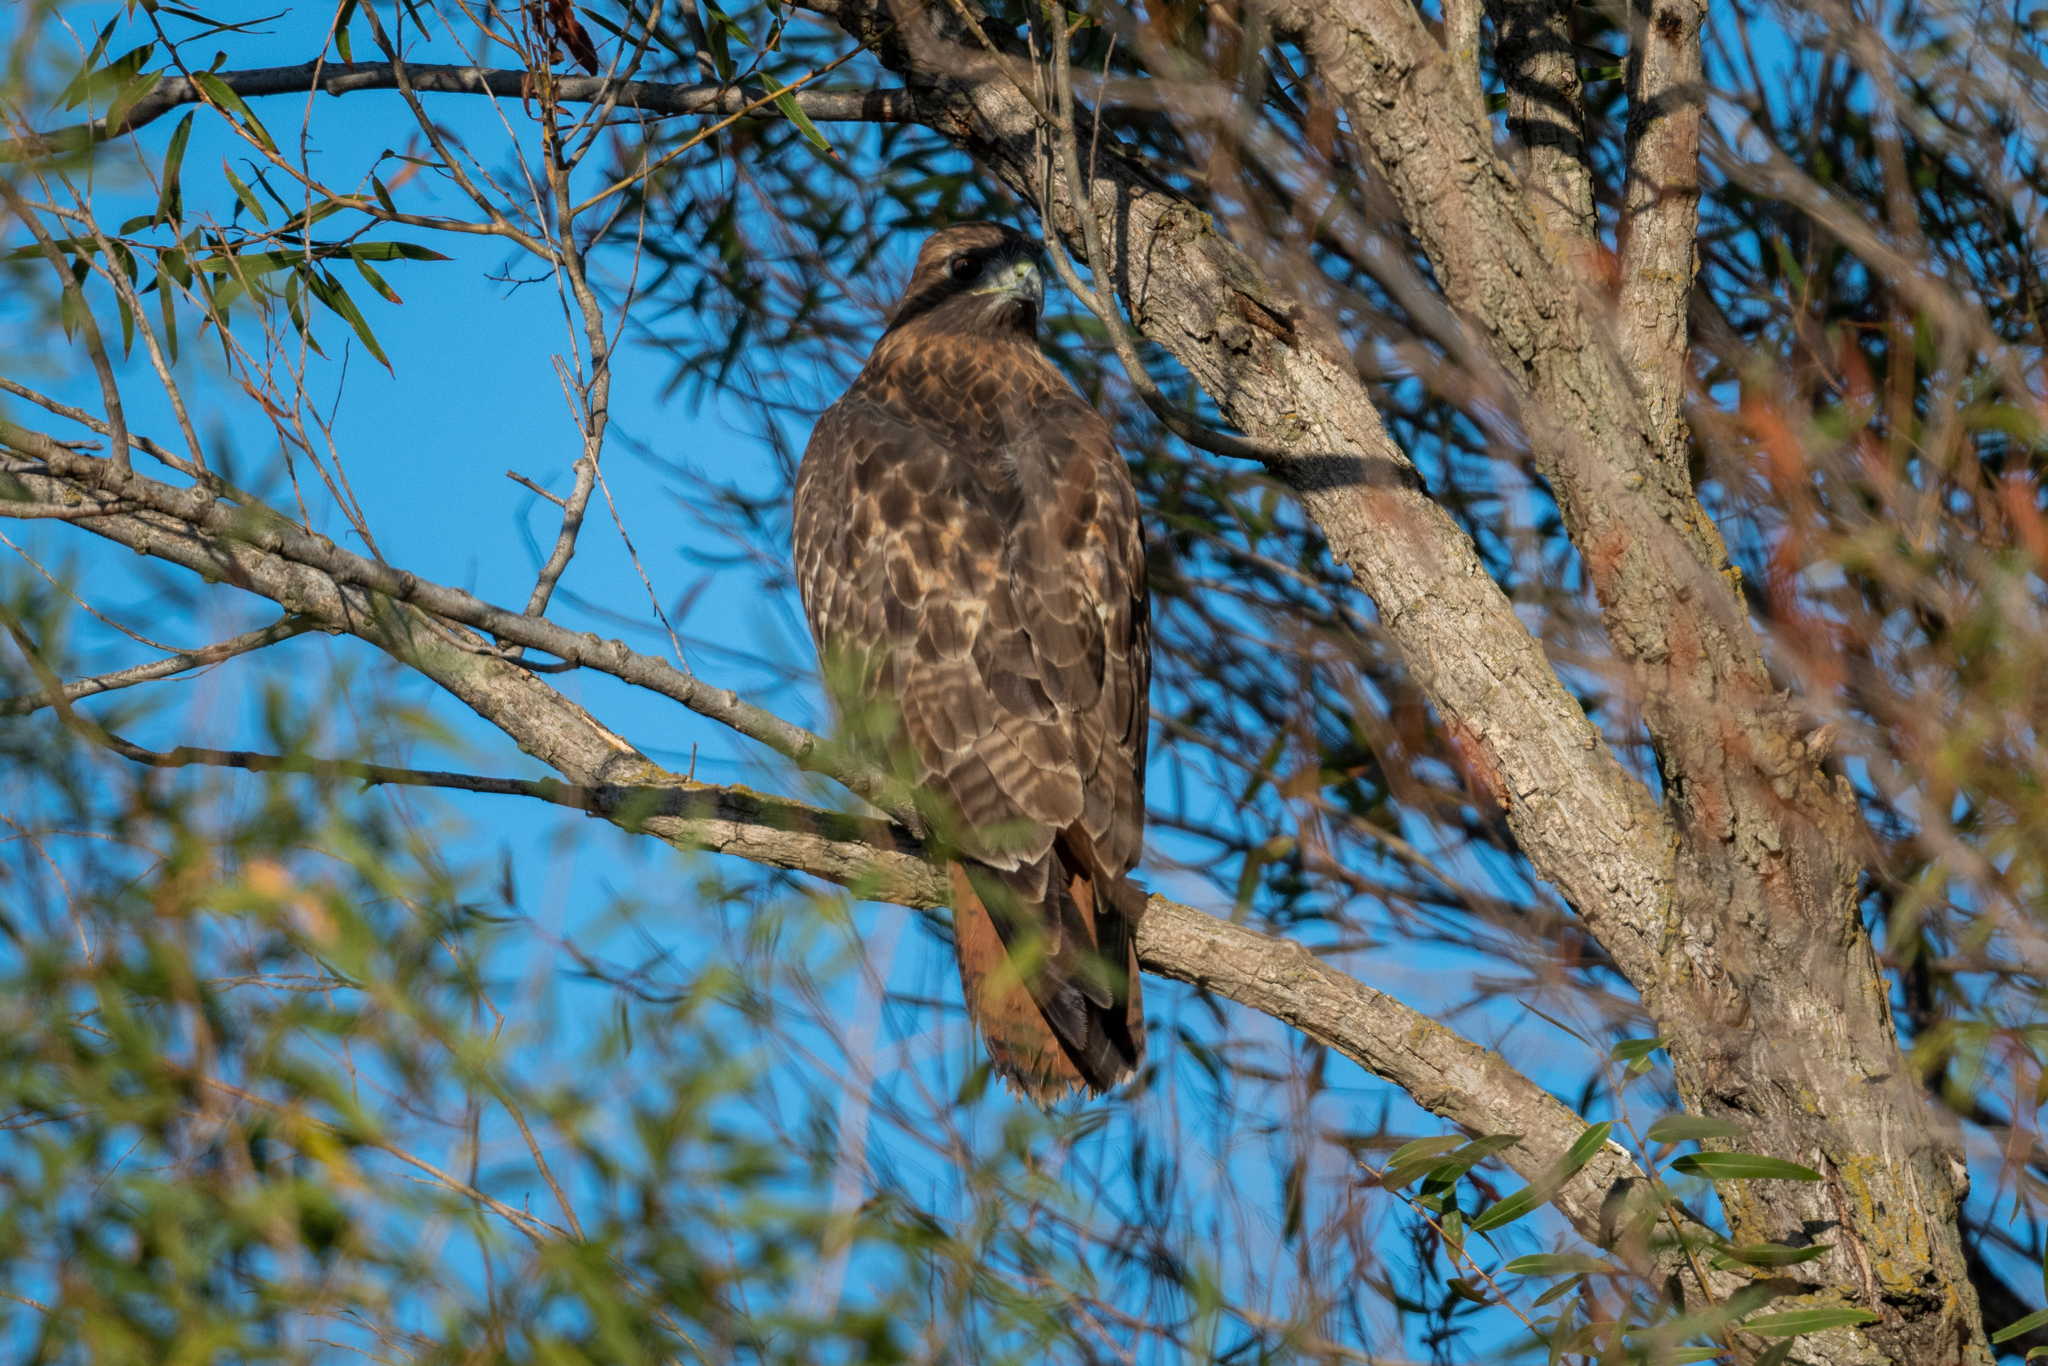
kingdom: Animalia
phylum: Chordata
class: Aves
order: Accipitriformes
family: Accipitridae
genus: Buteo
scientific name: Buteo jamaicensis
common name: Red-tailed hawk
